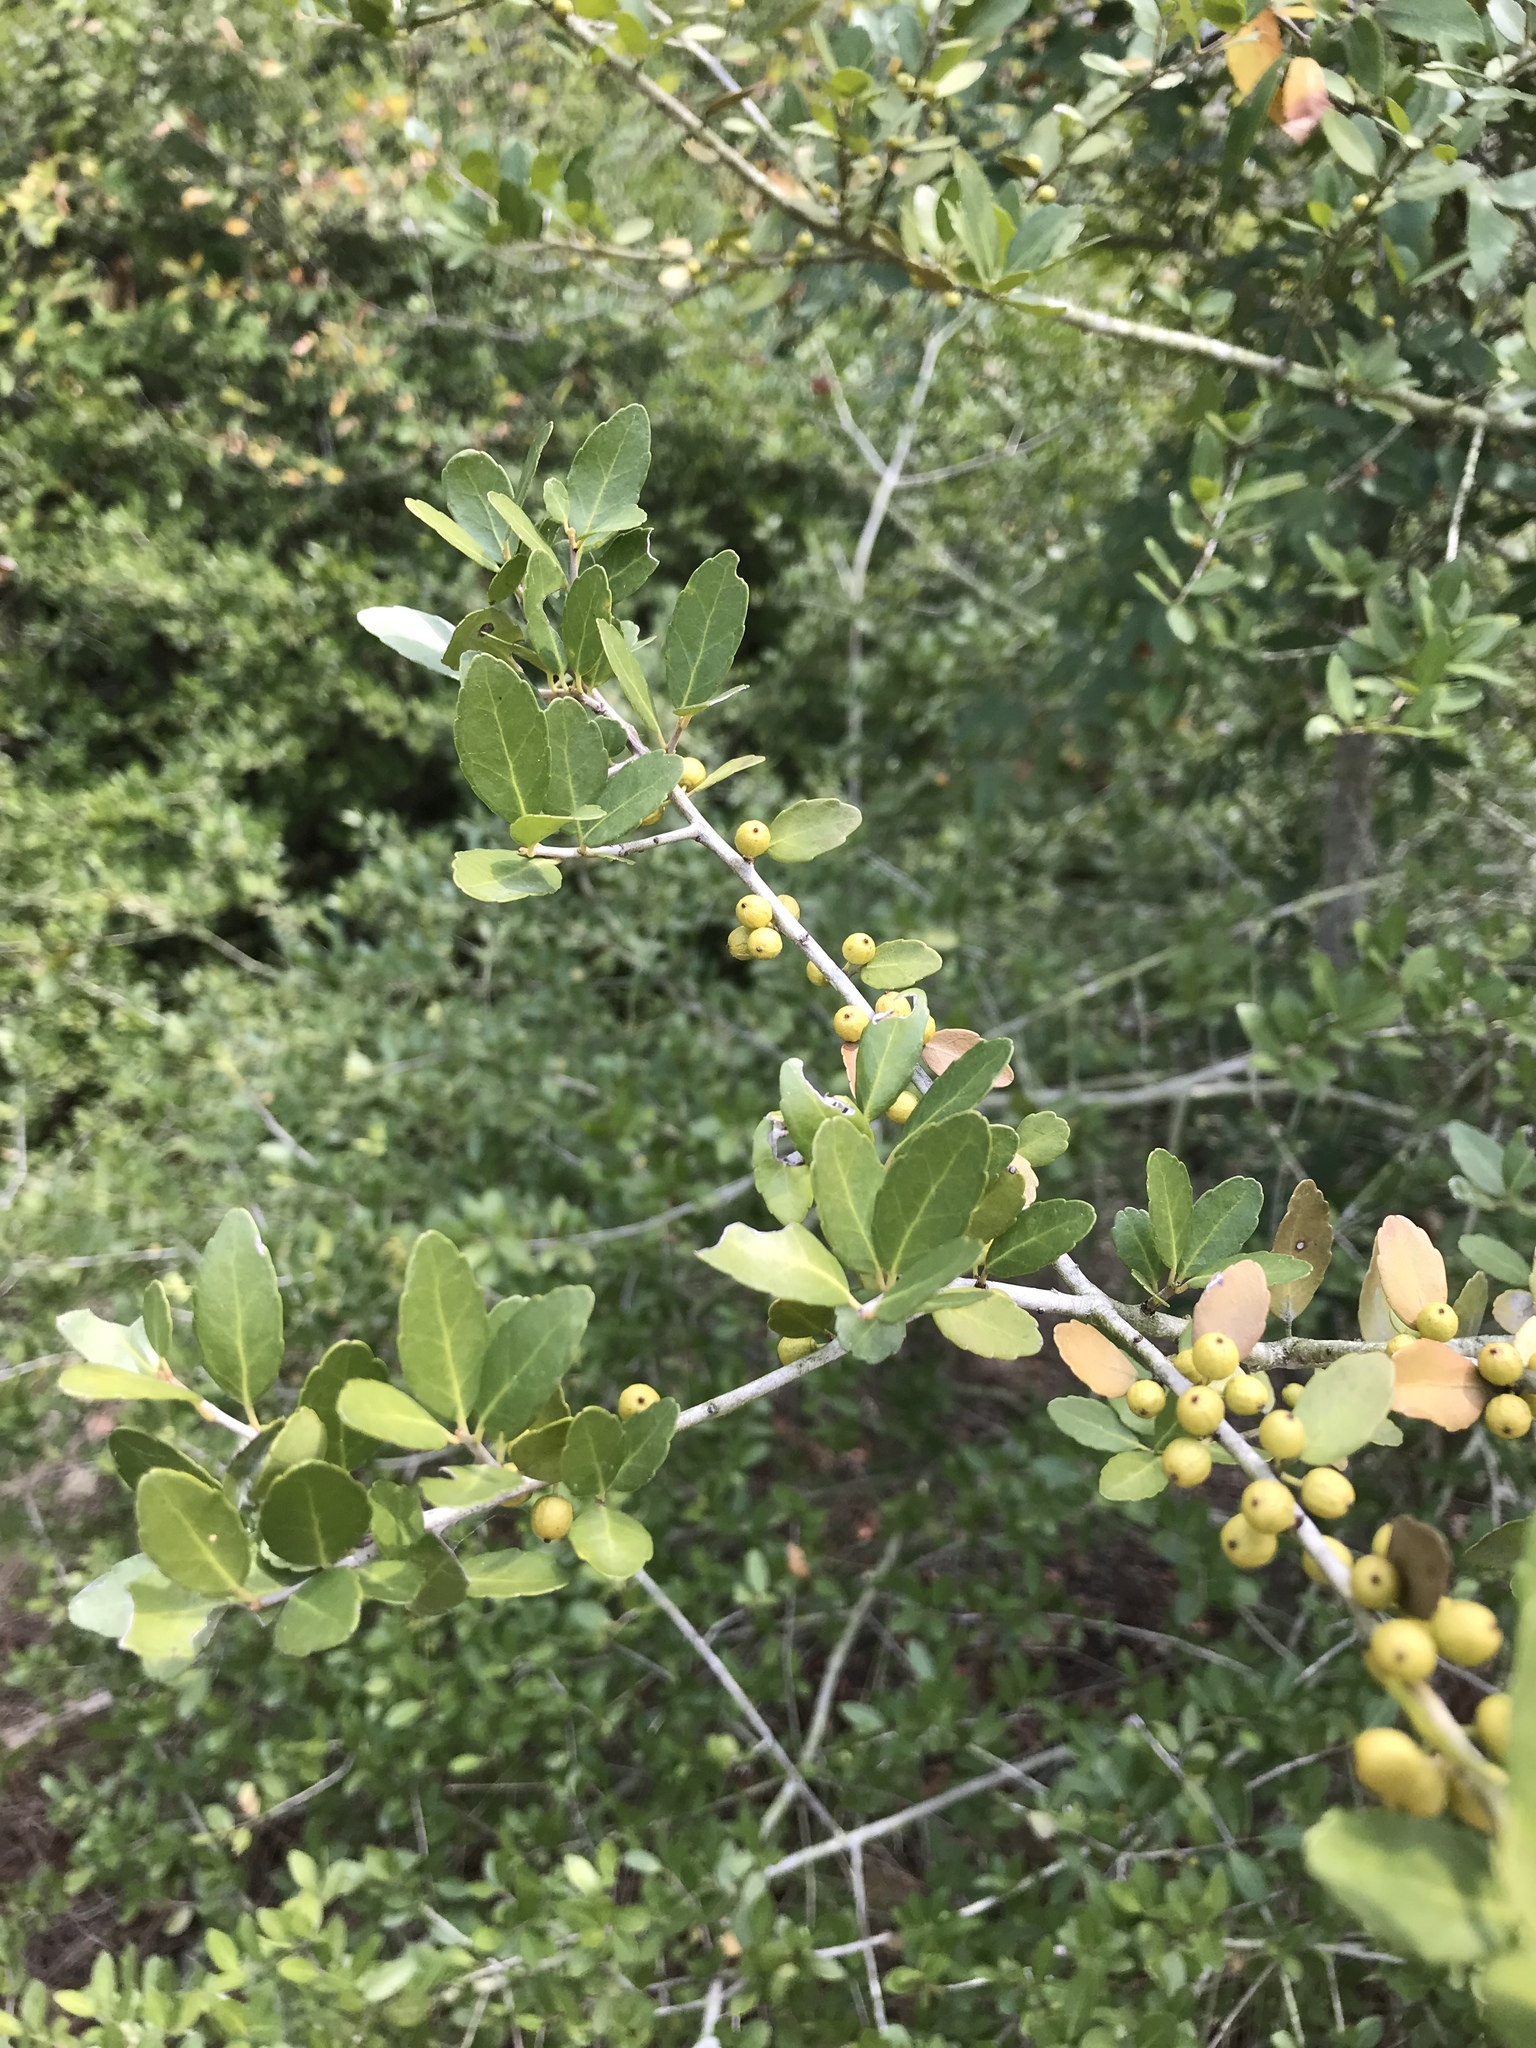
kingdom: Plantae
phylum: Tracheophyta
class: Magnoliopsida
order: Aquifoliales
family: Aquifoliaceae
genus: Ilex
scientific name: Ilex vomitoria
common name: Yaupon holly
